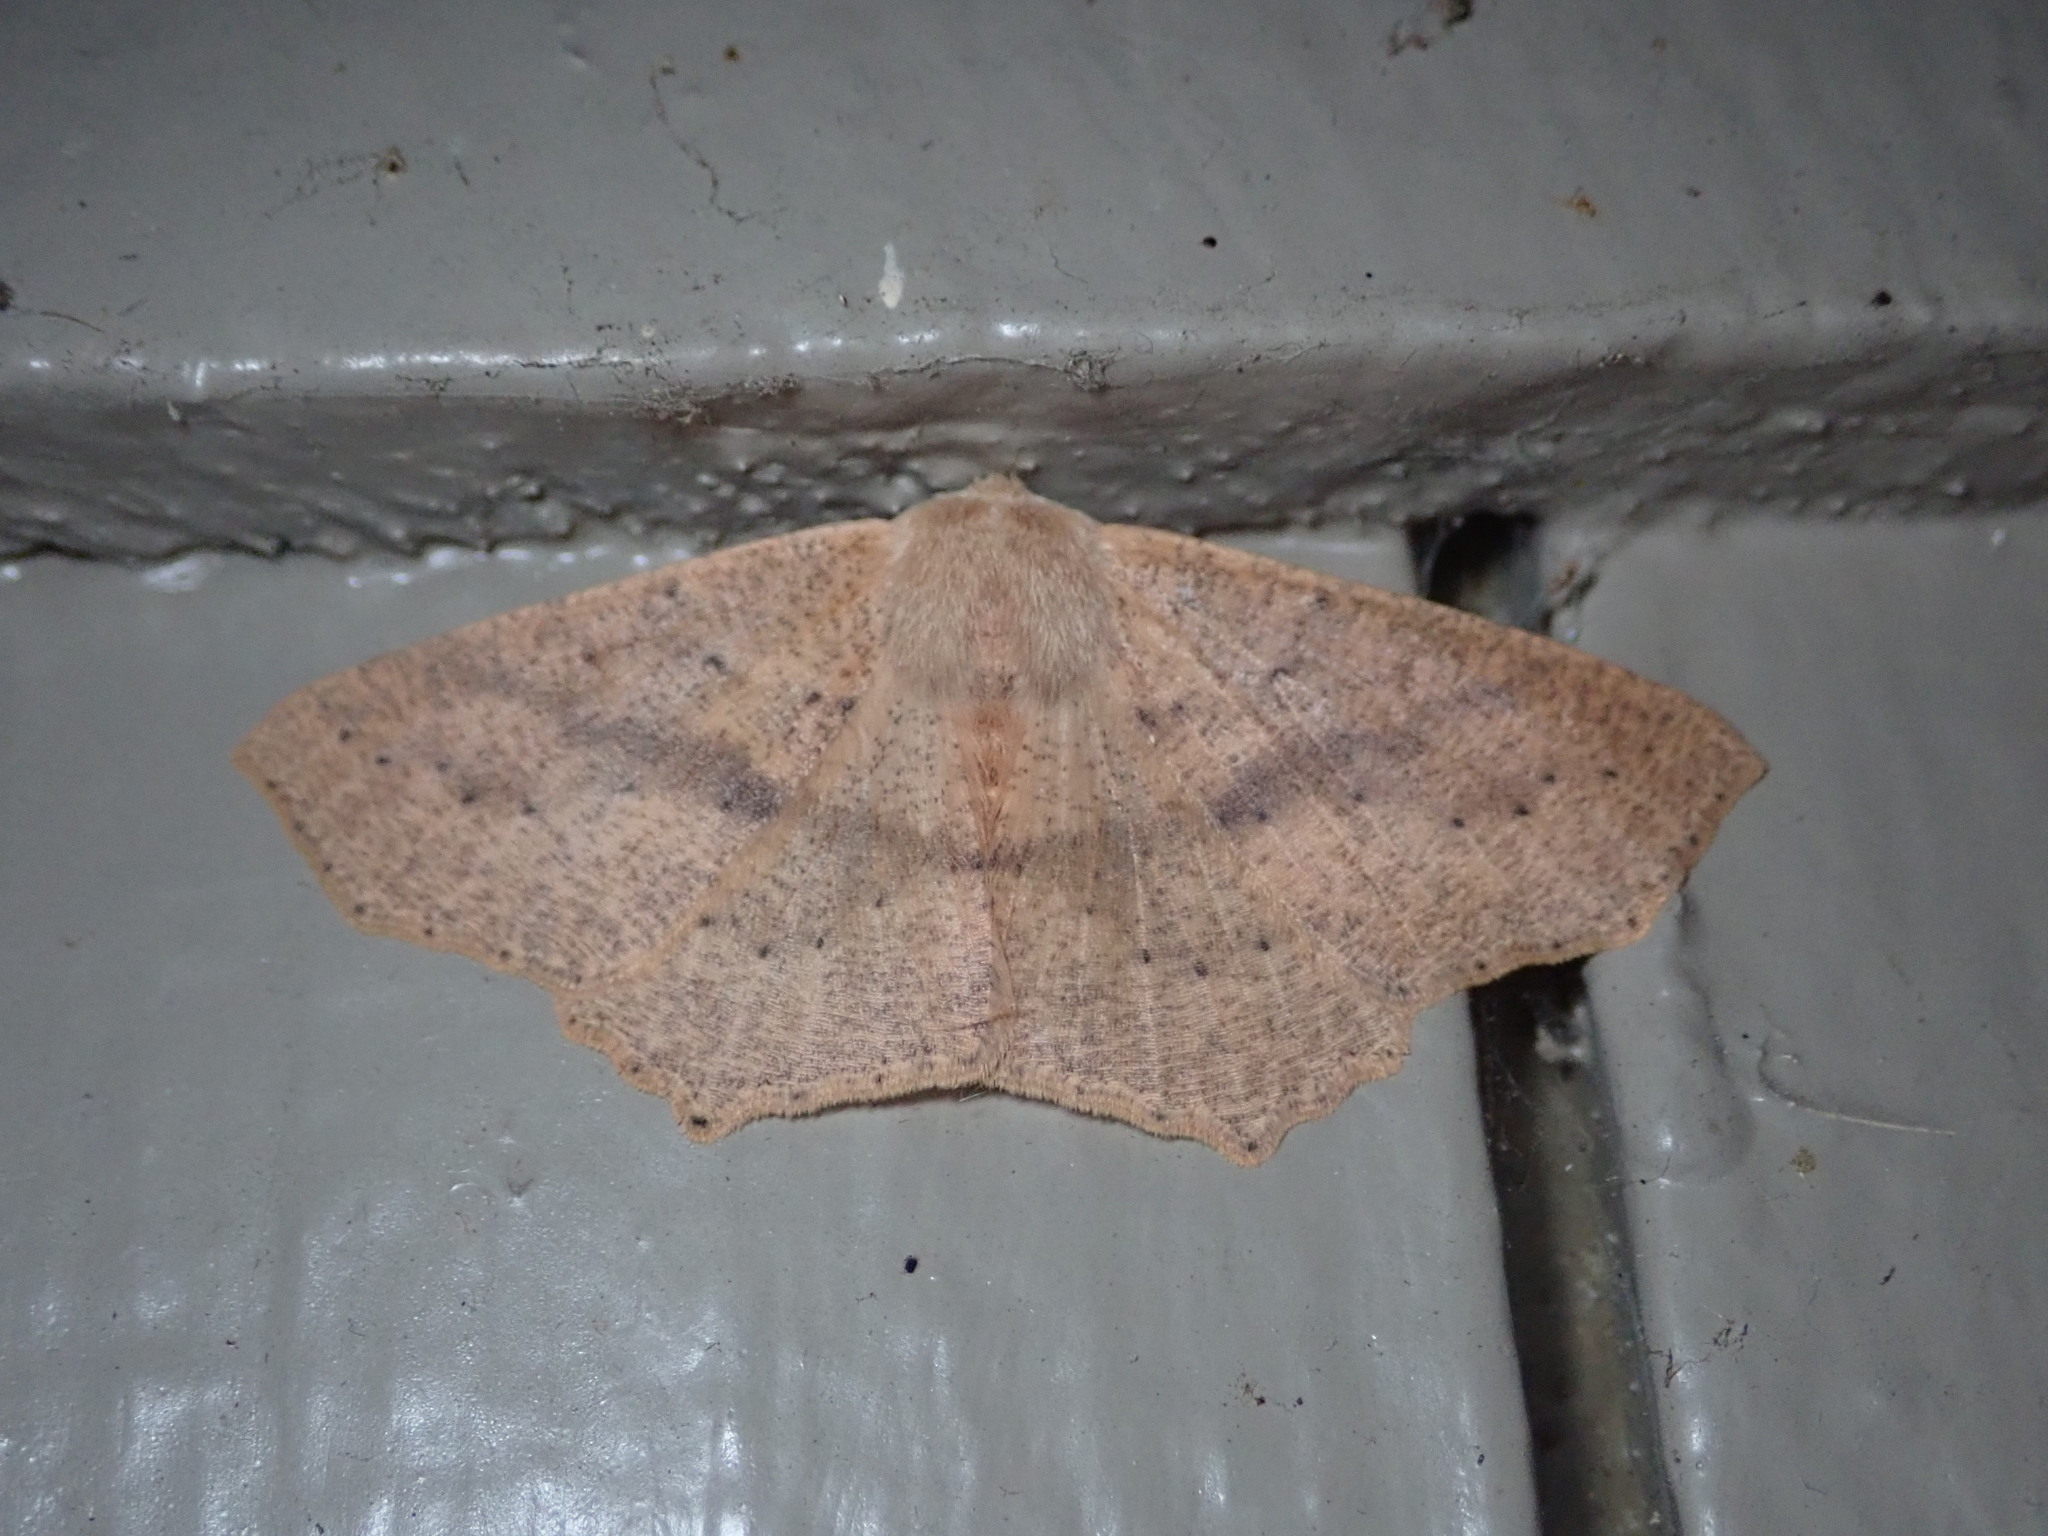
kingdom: Animalia
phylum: Arthropoda
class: Insecta
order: Lepidoptera
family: Geometridae
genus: Sabulodes
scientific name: Sabulodes aegrotata
